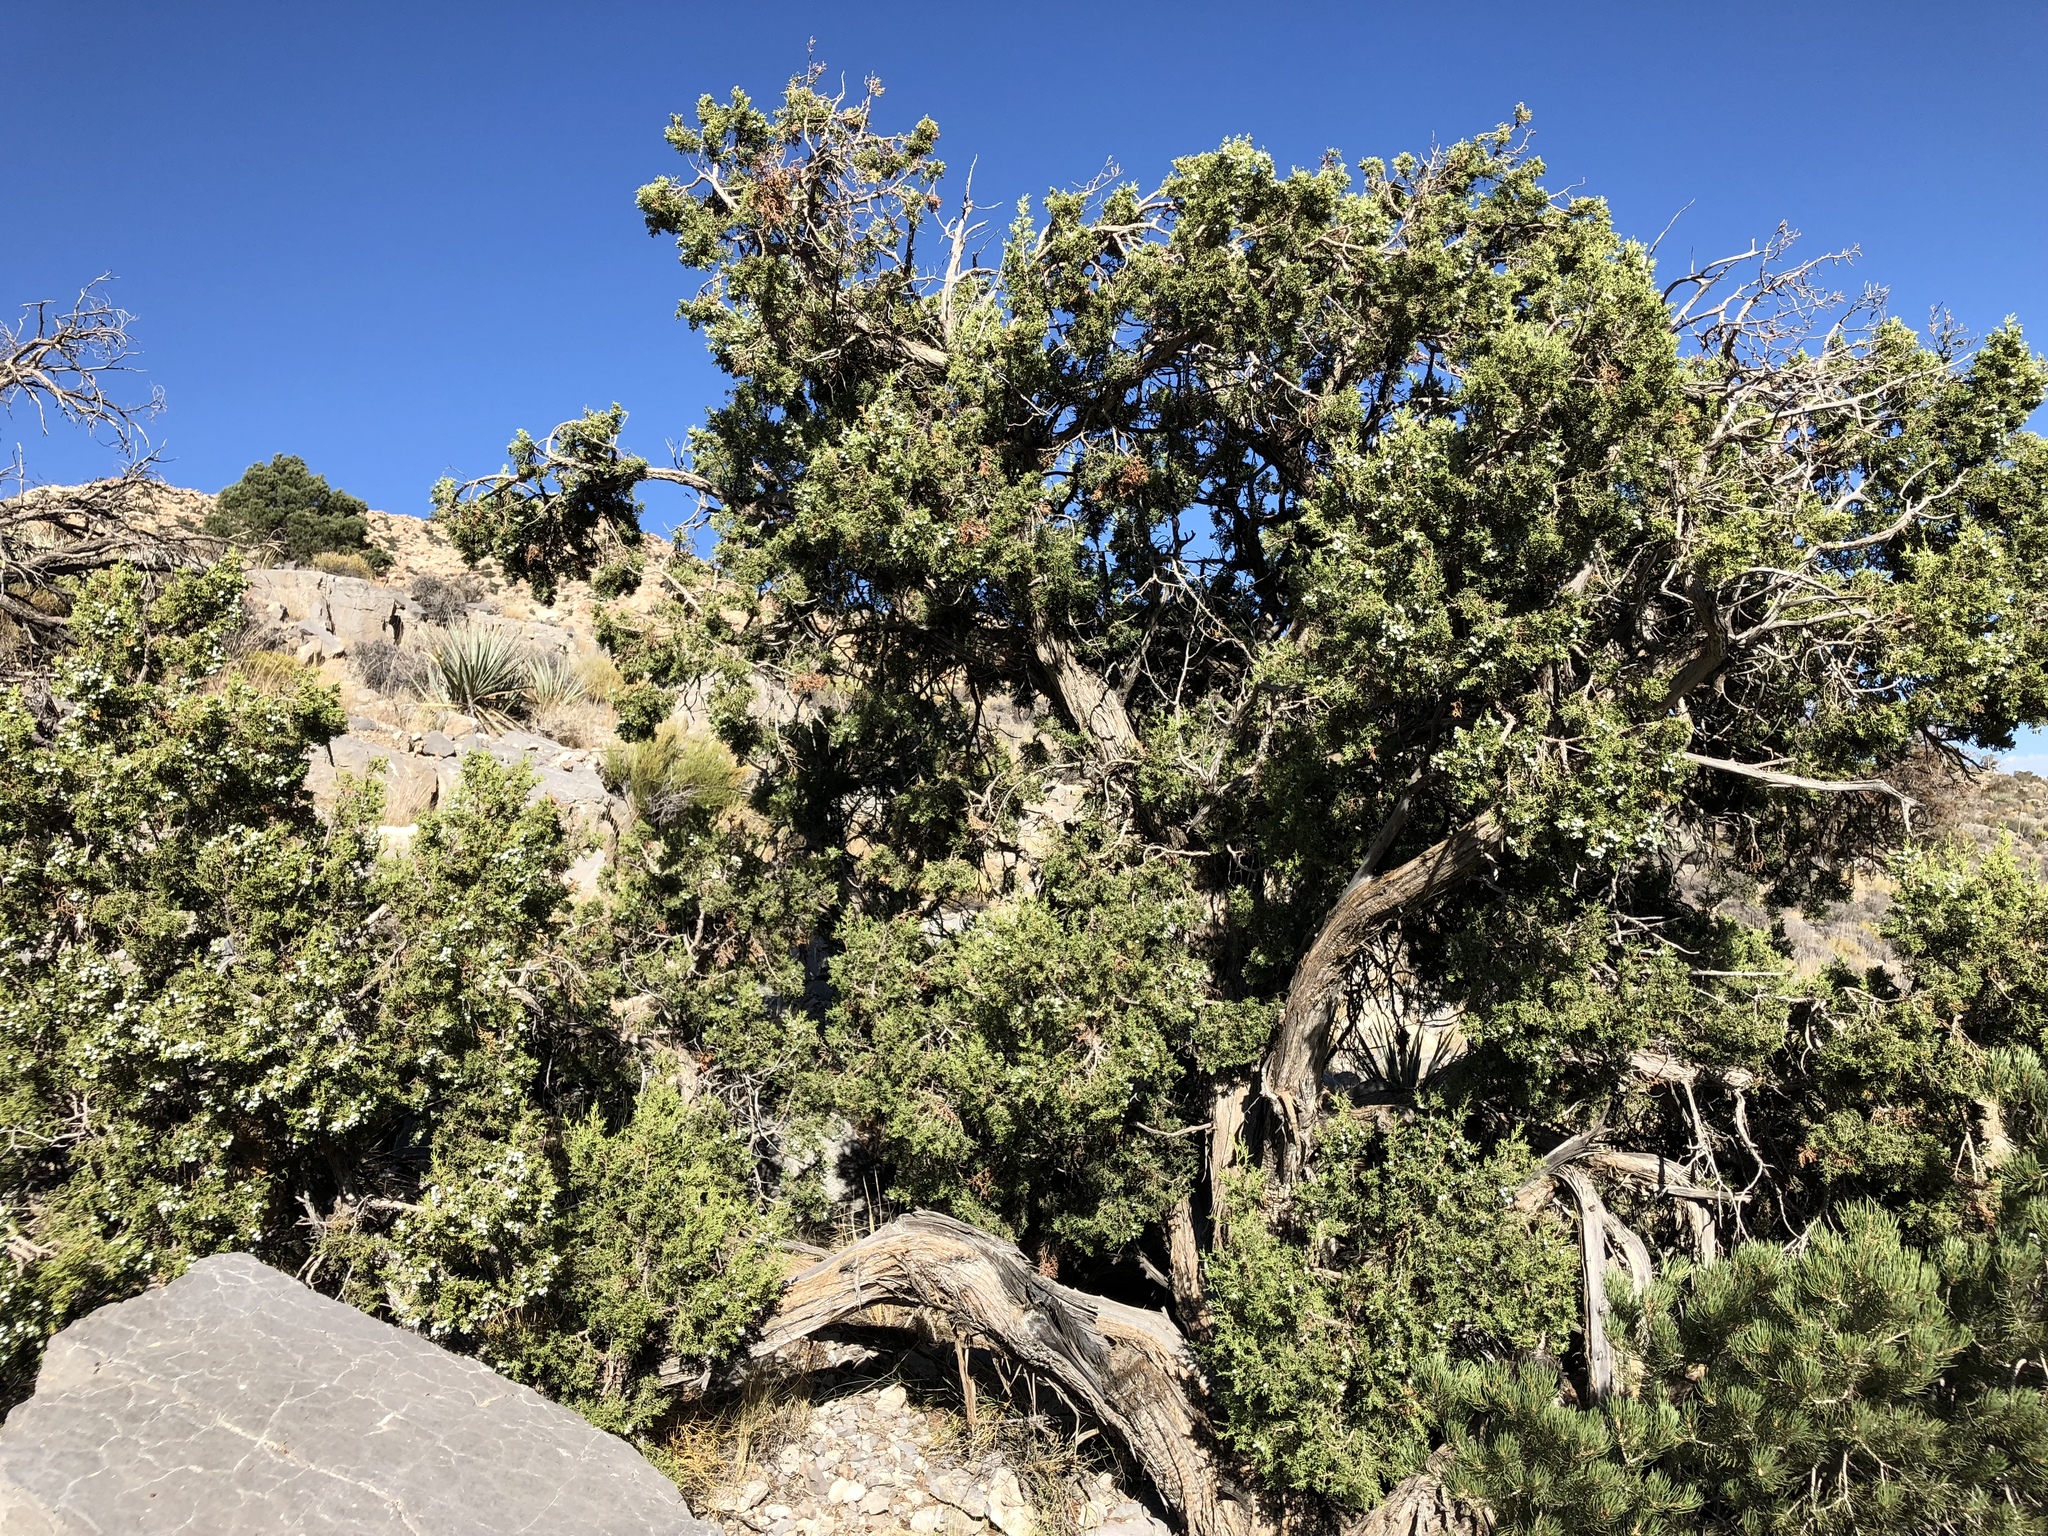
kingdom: Plantae
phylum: Tracheophyta
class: Pinopsida
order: Pinales
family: Cupressaceae
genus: Juniperus
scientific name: Juniperus osteosperma
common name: Utah juniper
